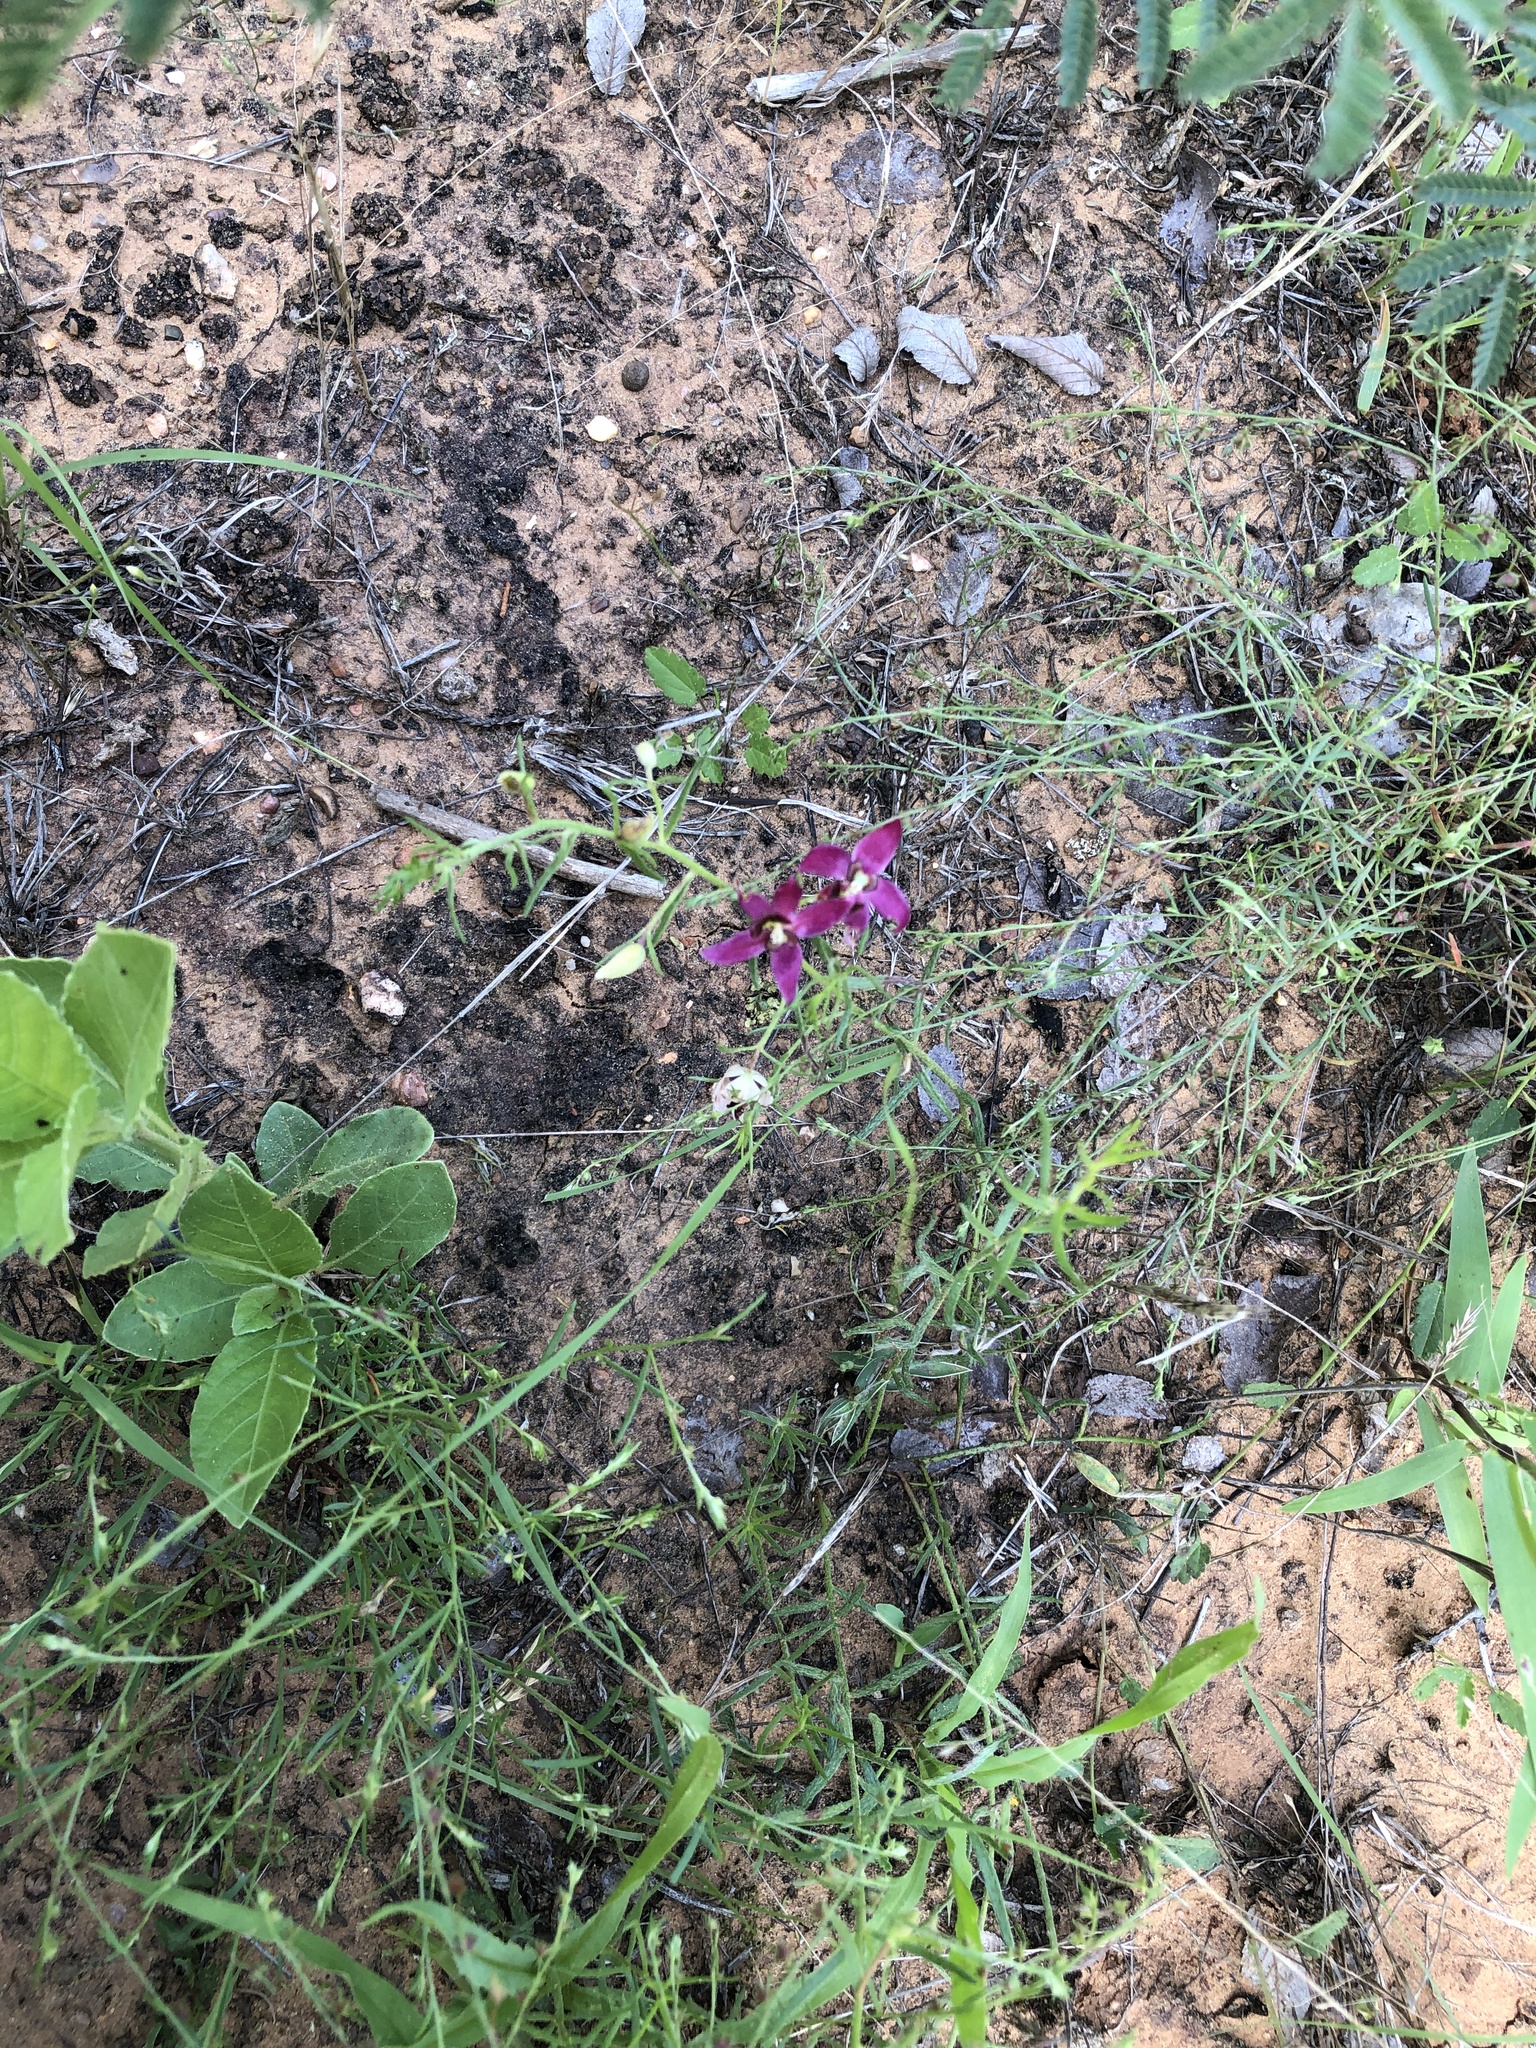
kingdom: Plantae
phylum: Tracheophyta
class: Magnoliopsida
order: Zygophyllales
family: Krameriaceae
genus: Krameria
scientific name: Krameria lanceolata
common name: Ratany
